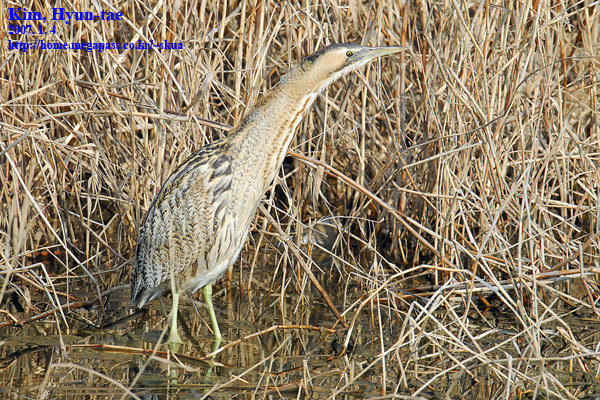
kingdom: Animalia
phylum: Chordata
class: Aves
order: Pelecaniformes
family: Ardeidae
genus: Botaurus
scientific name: Botaurus stellaris
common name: Eurasian bittern
